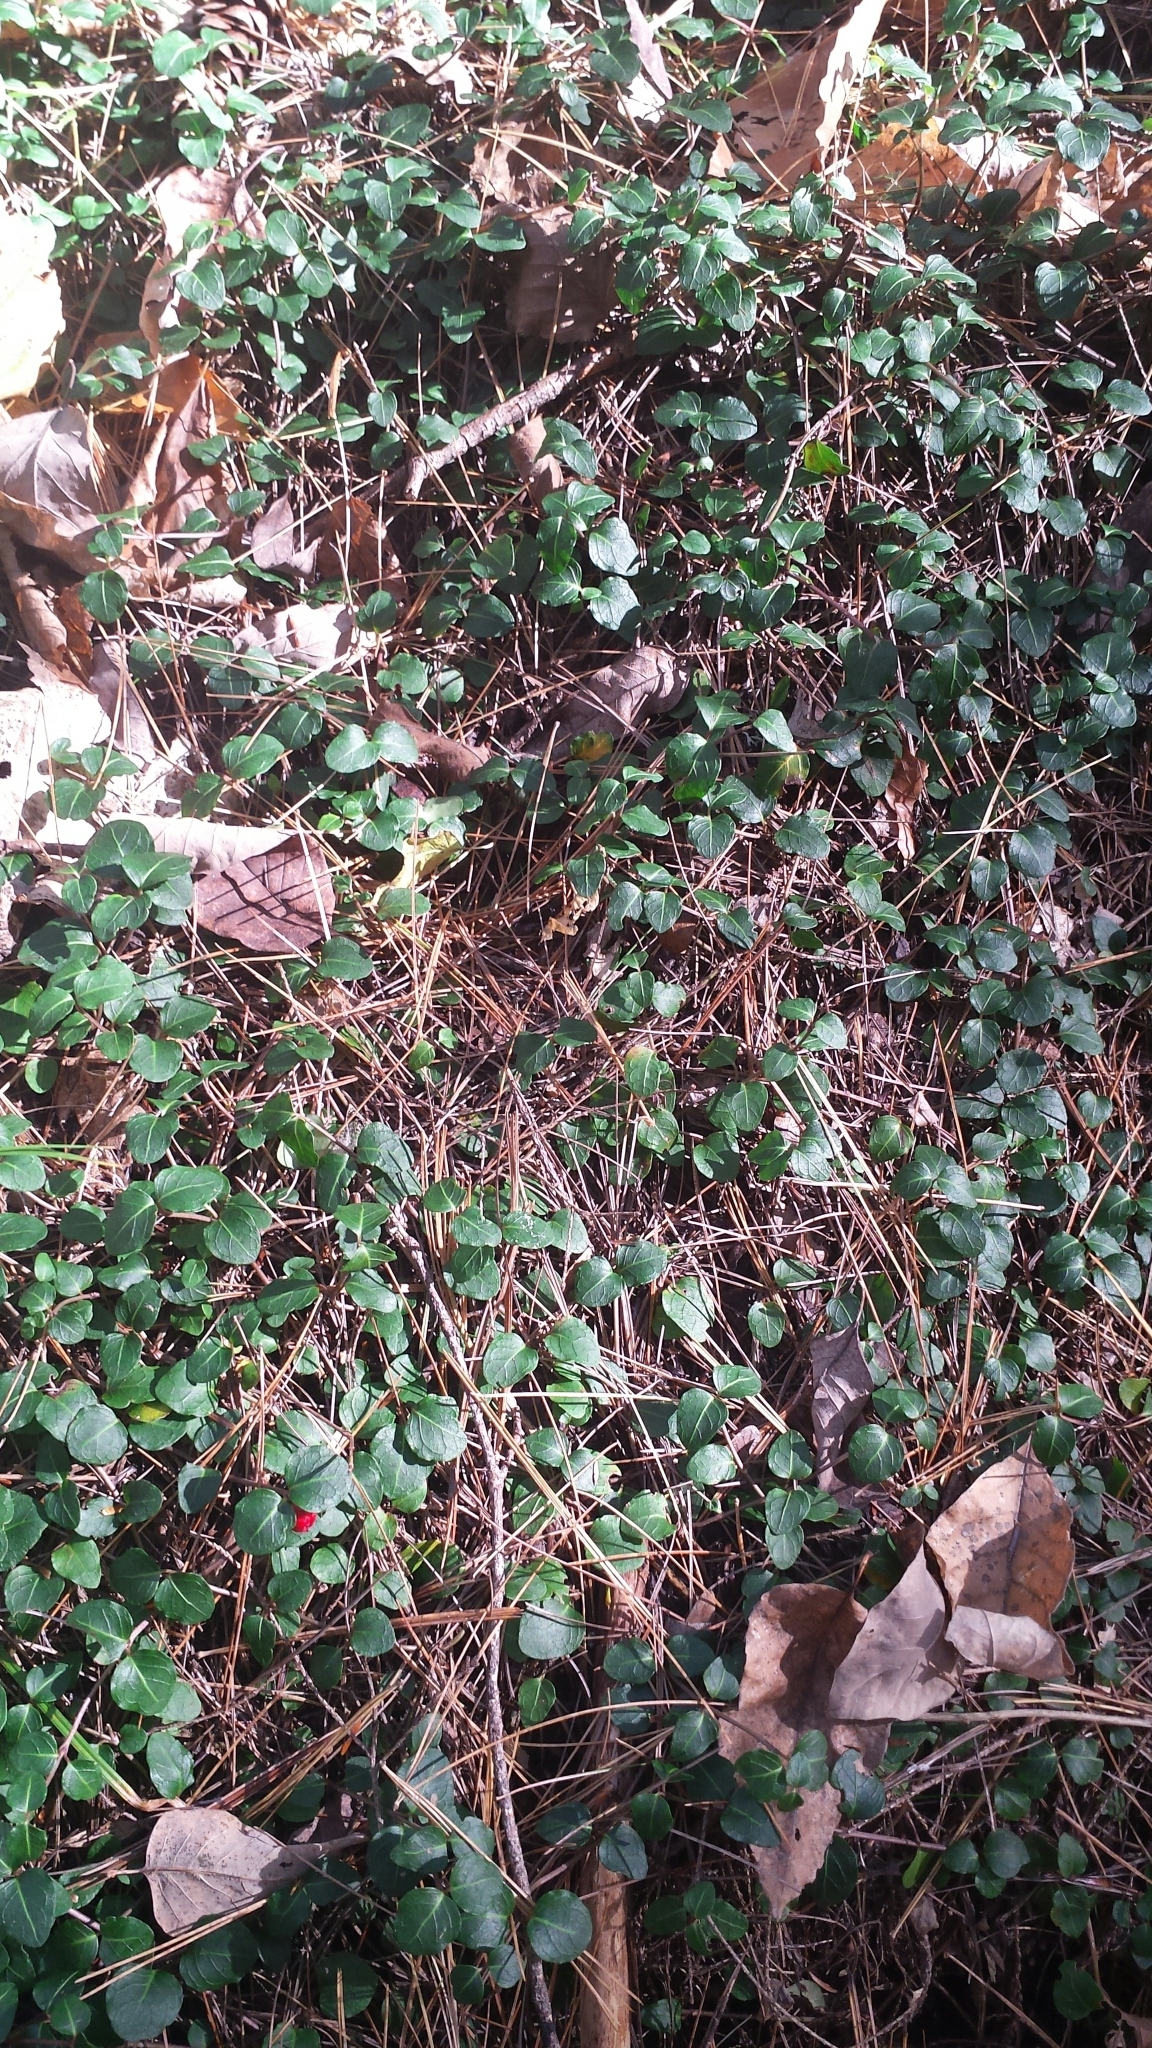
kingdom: Plantae
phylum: Tracheophyta
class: Magnoliopsida
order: Gentianales
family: Rubiaceae
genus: Mitchella
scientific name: Mitchella repens
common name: Partridge-berry
